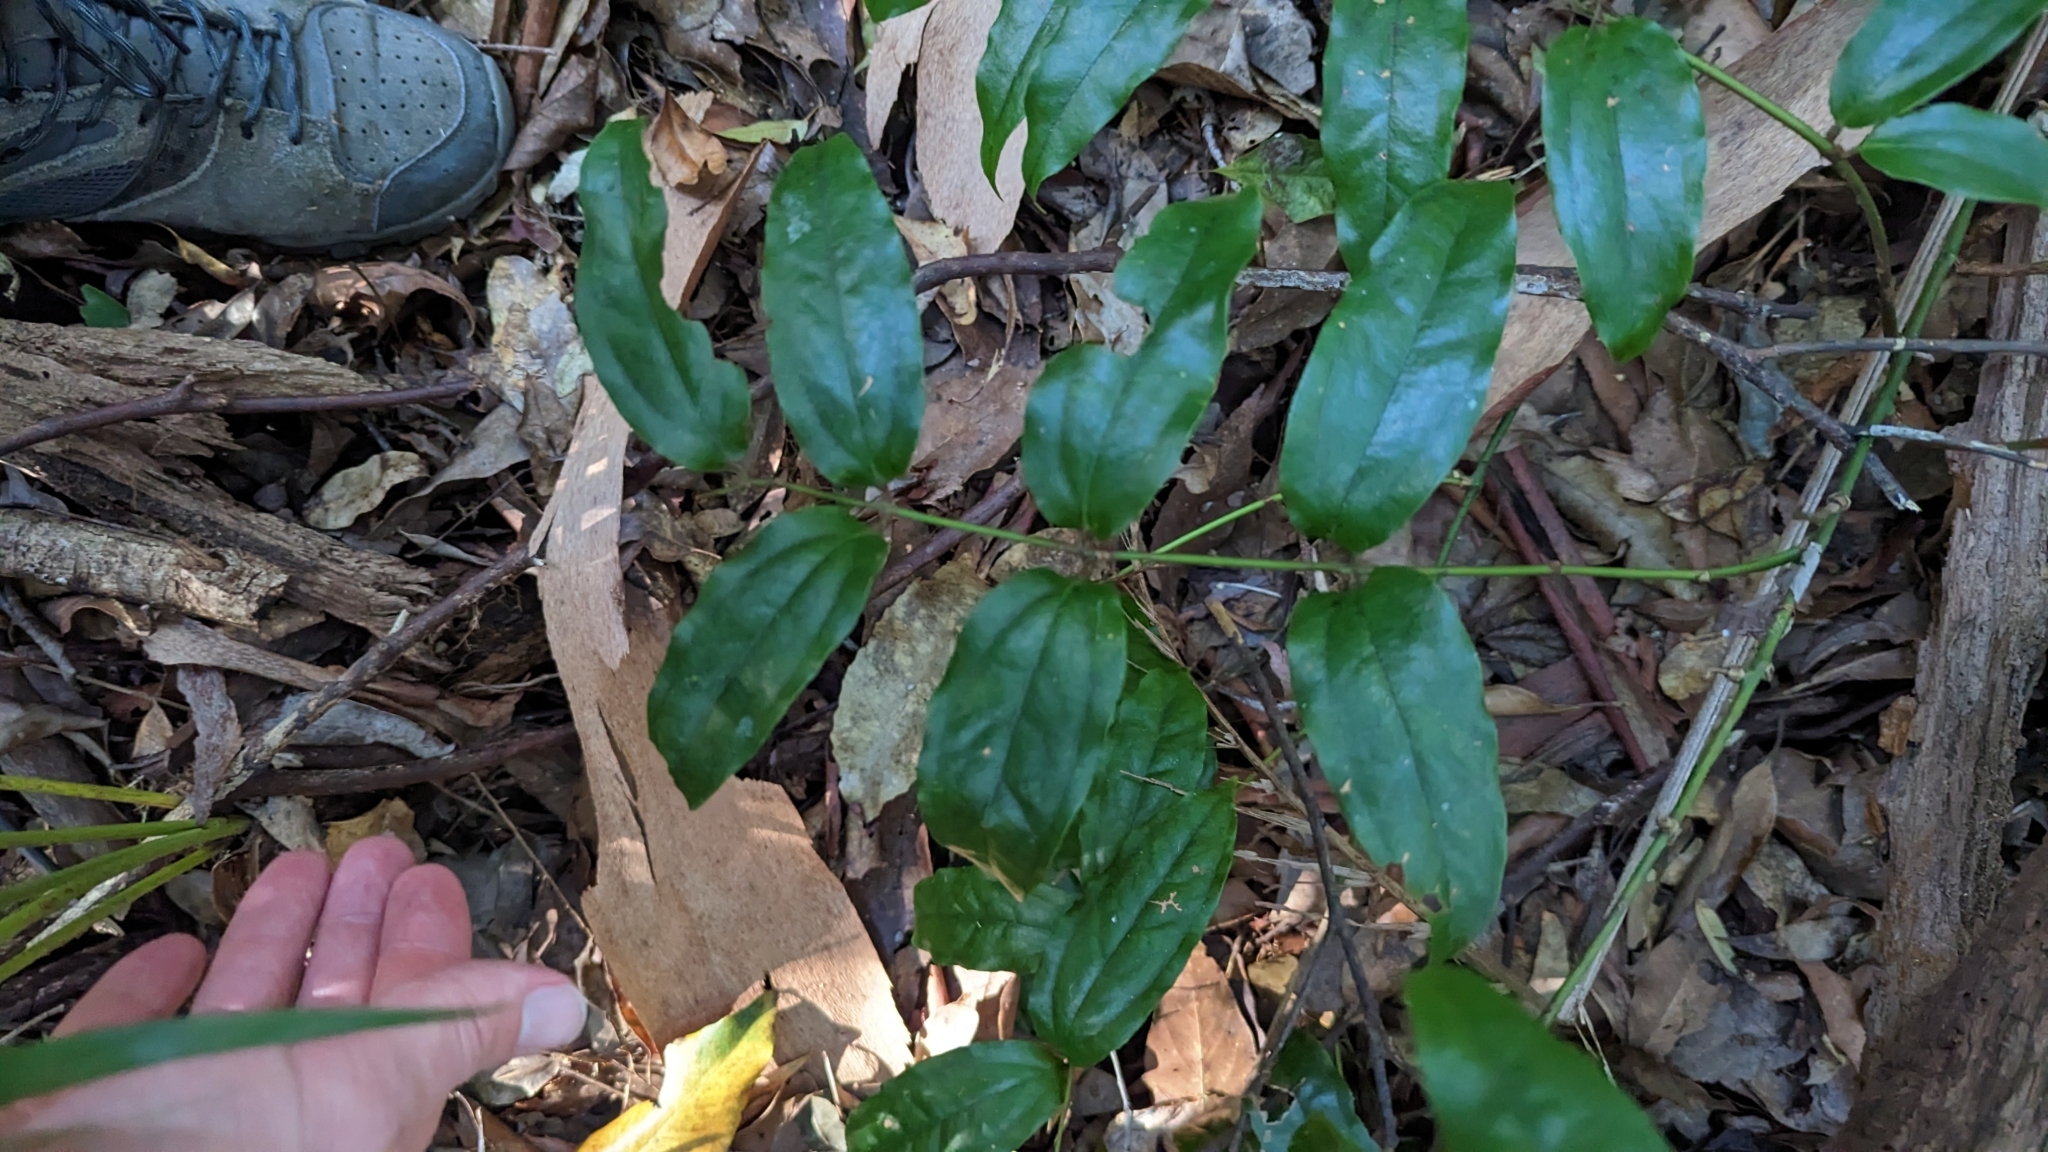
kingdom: Plantae
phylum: Tracheophyta
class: Liliopsida
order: Liliales
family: Ripogonaceae
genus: Ripogonum
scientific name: Ripogonum elseyanum
